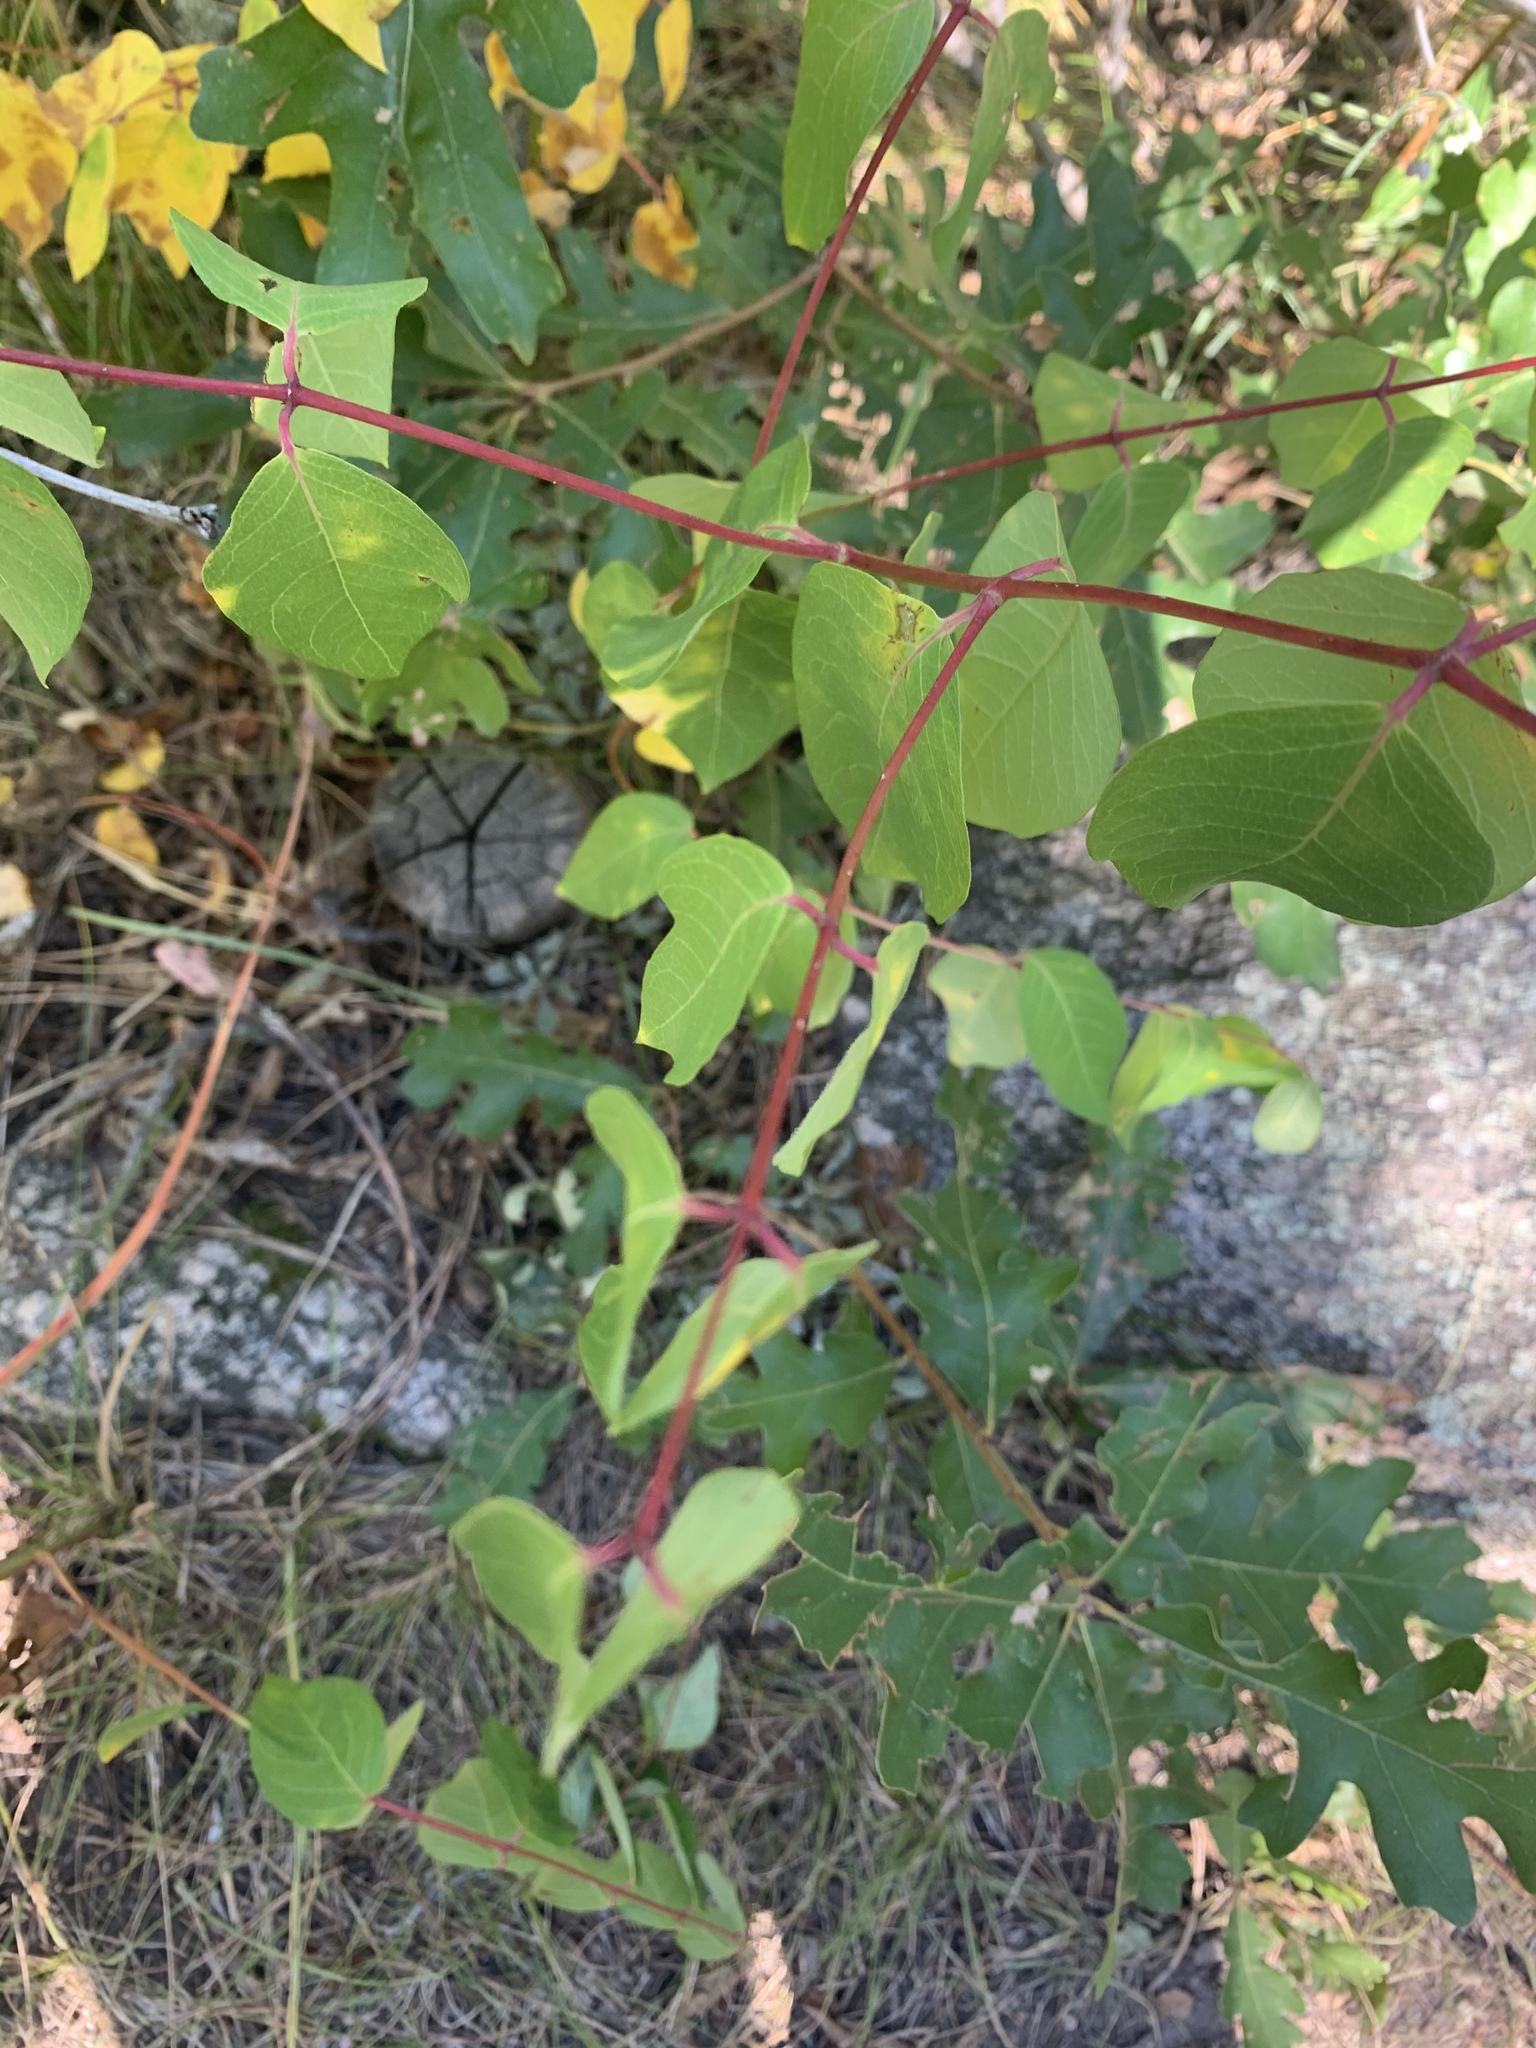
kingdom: Plantae
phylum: Tracheophyta
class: Magnoliopsida
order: Gentianales
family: Apocynaceae
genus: Apocynum
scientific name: Apocynum androsaemifolium
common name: Spreading dogbane
